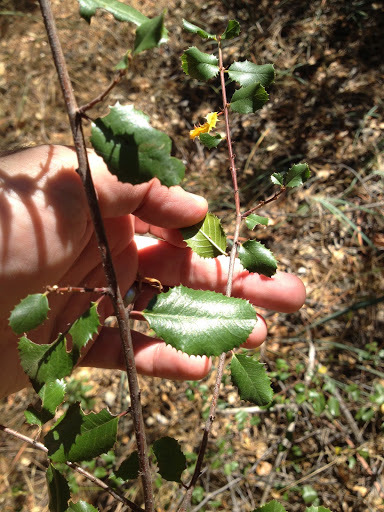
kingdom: Plantae
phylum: Tracheophyta
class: Magnoliopsida
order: Rosales
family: Rhamnaceae
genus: Endotropis
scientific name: Endotropis crocea
